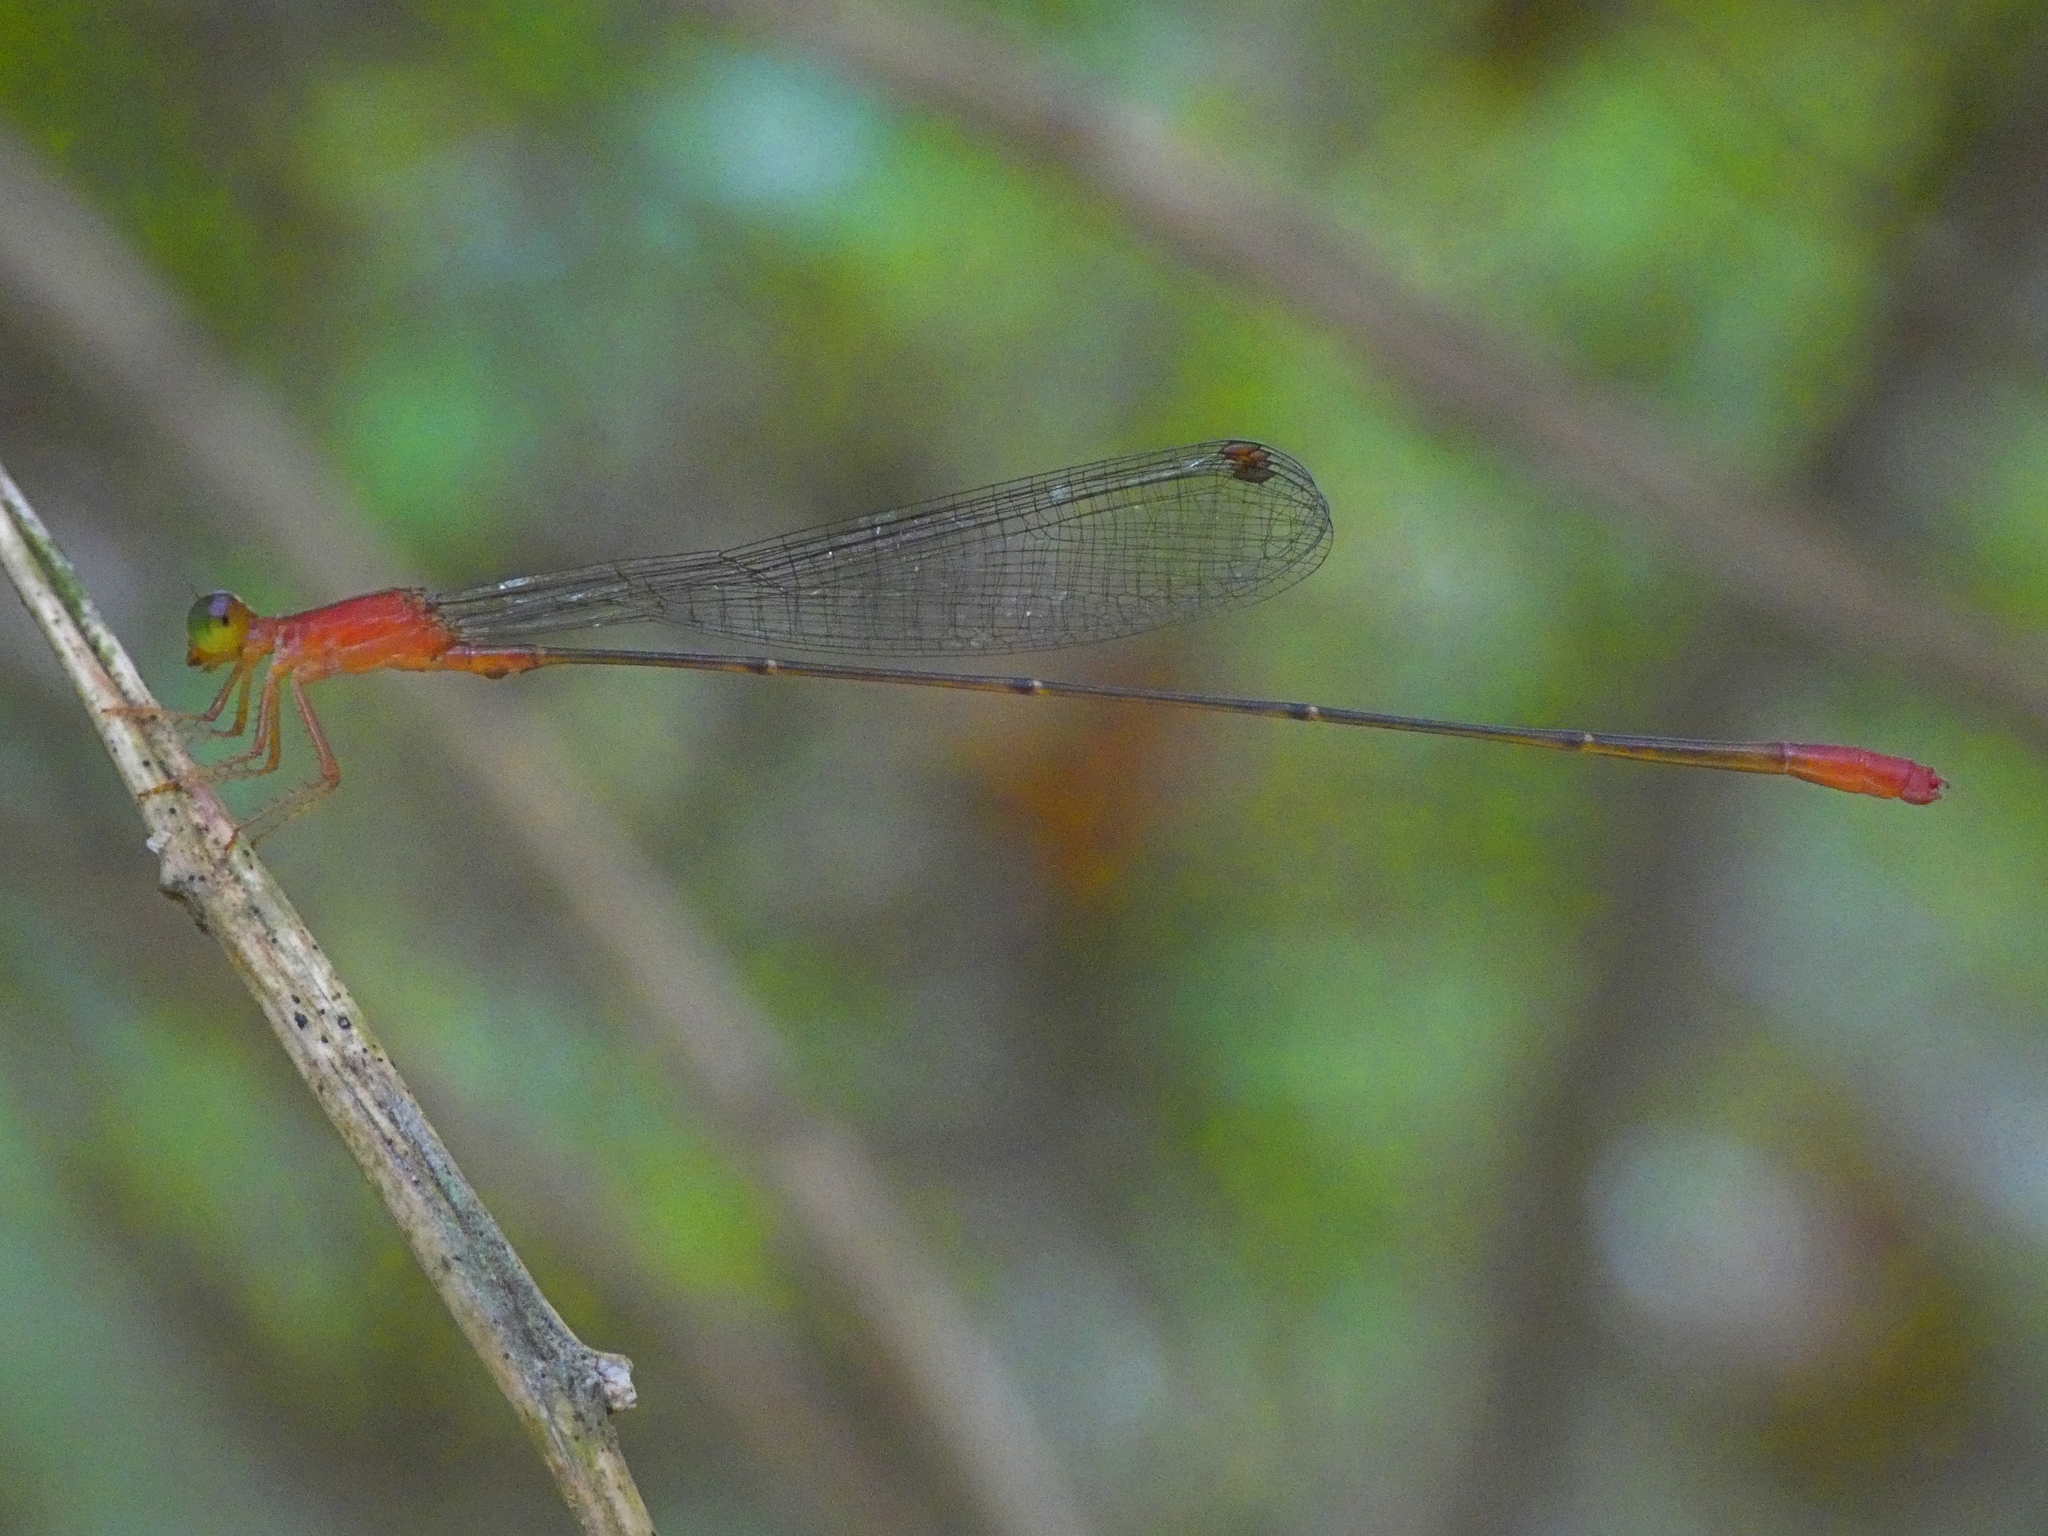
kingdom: Animalia
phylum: Arthropoda
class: Insecta
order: Odonata
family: Coenagrionidae
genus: Teinobasis
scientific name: Teinobasis rufithorax
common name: Red-breasted longtail
